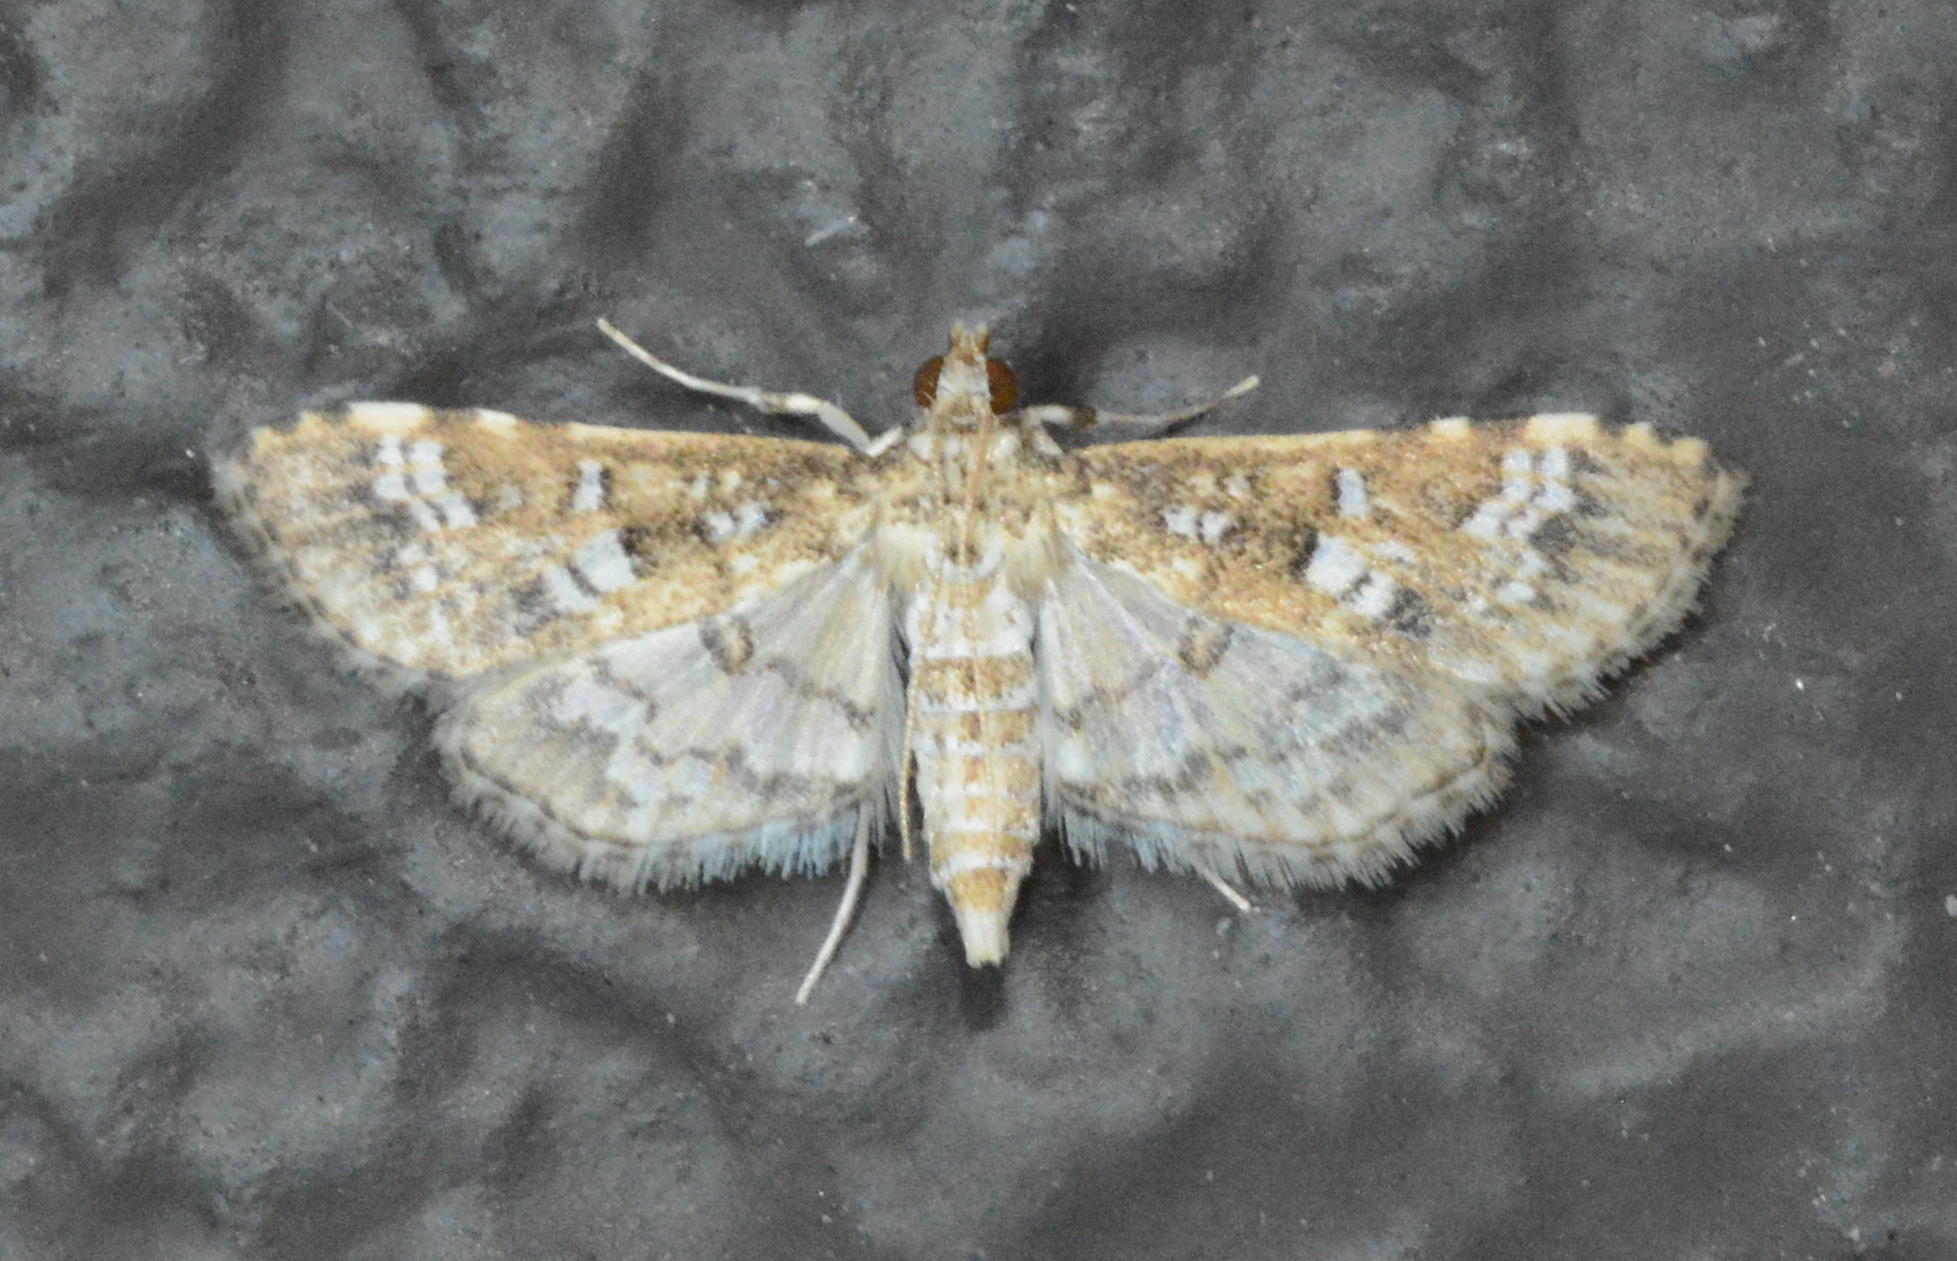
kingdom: Animalia
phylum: Arthropoda
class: Insecta
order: Lepidoptera
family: Crambidae
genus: Samea
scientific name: Samea multiplicalis
